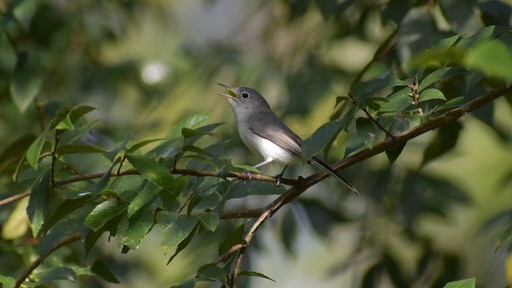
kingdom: Animalia
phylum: Chordata
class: Aves
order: Passeriformes
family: Polioptilidae
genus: Polioptila
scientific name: Polioptila caerulea
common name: Blue-gray gnatcatcher
